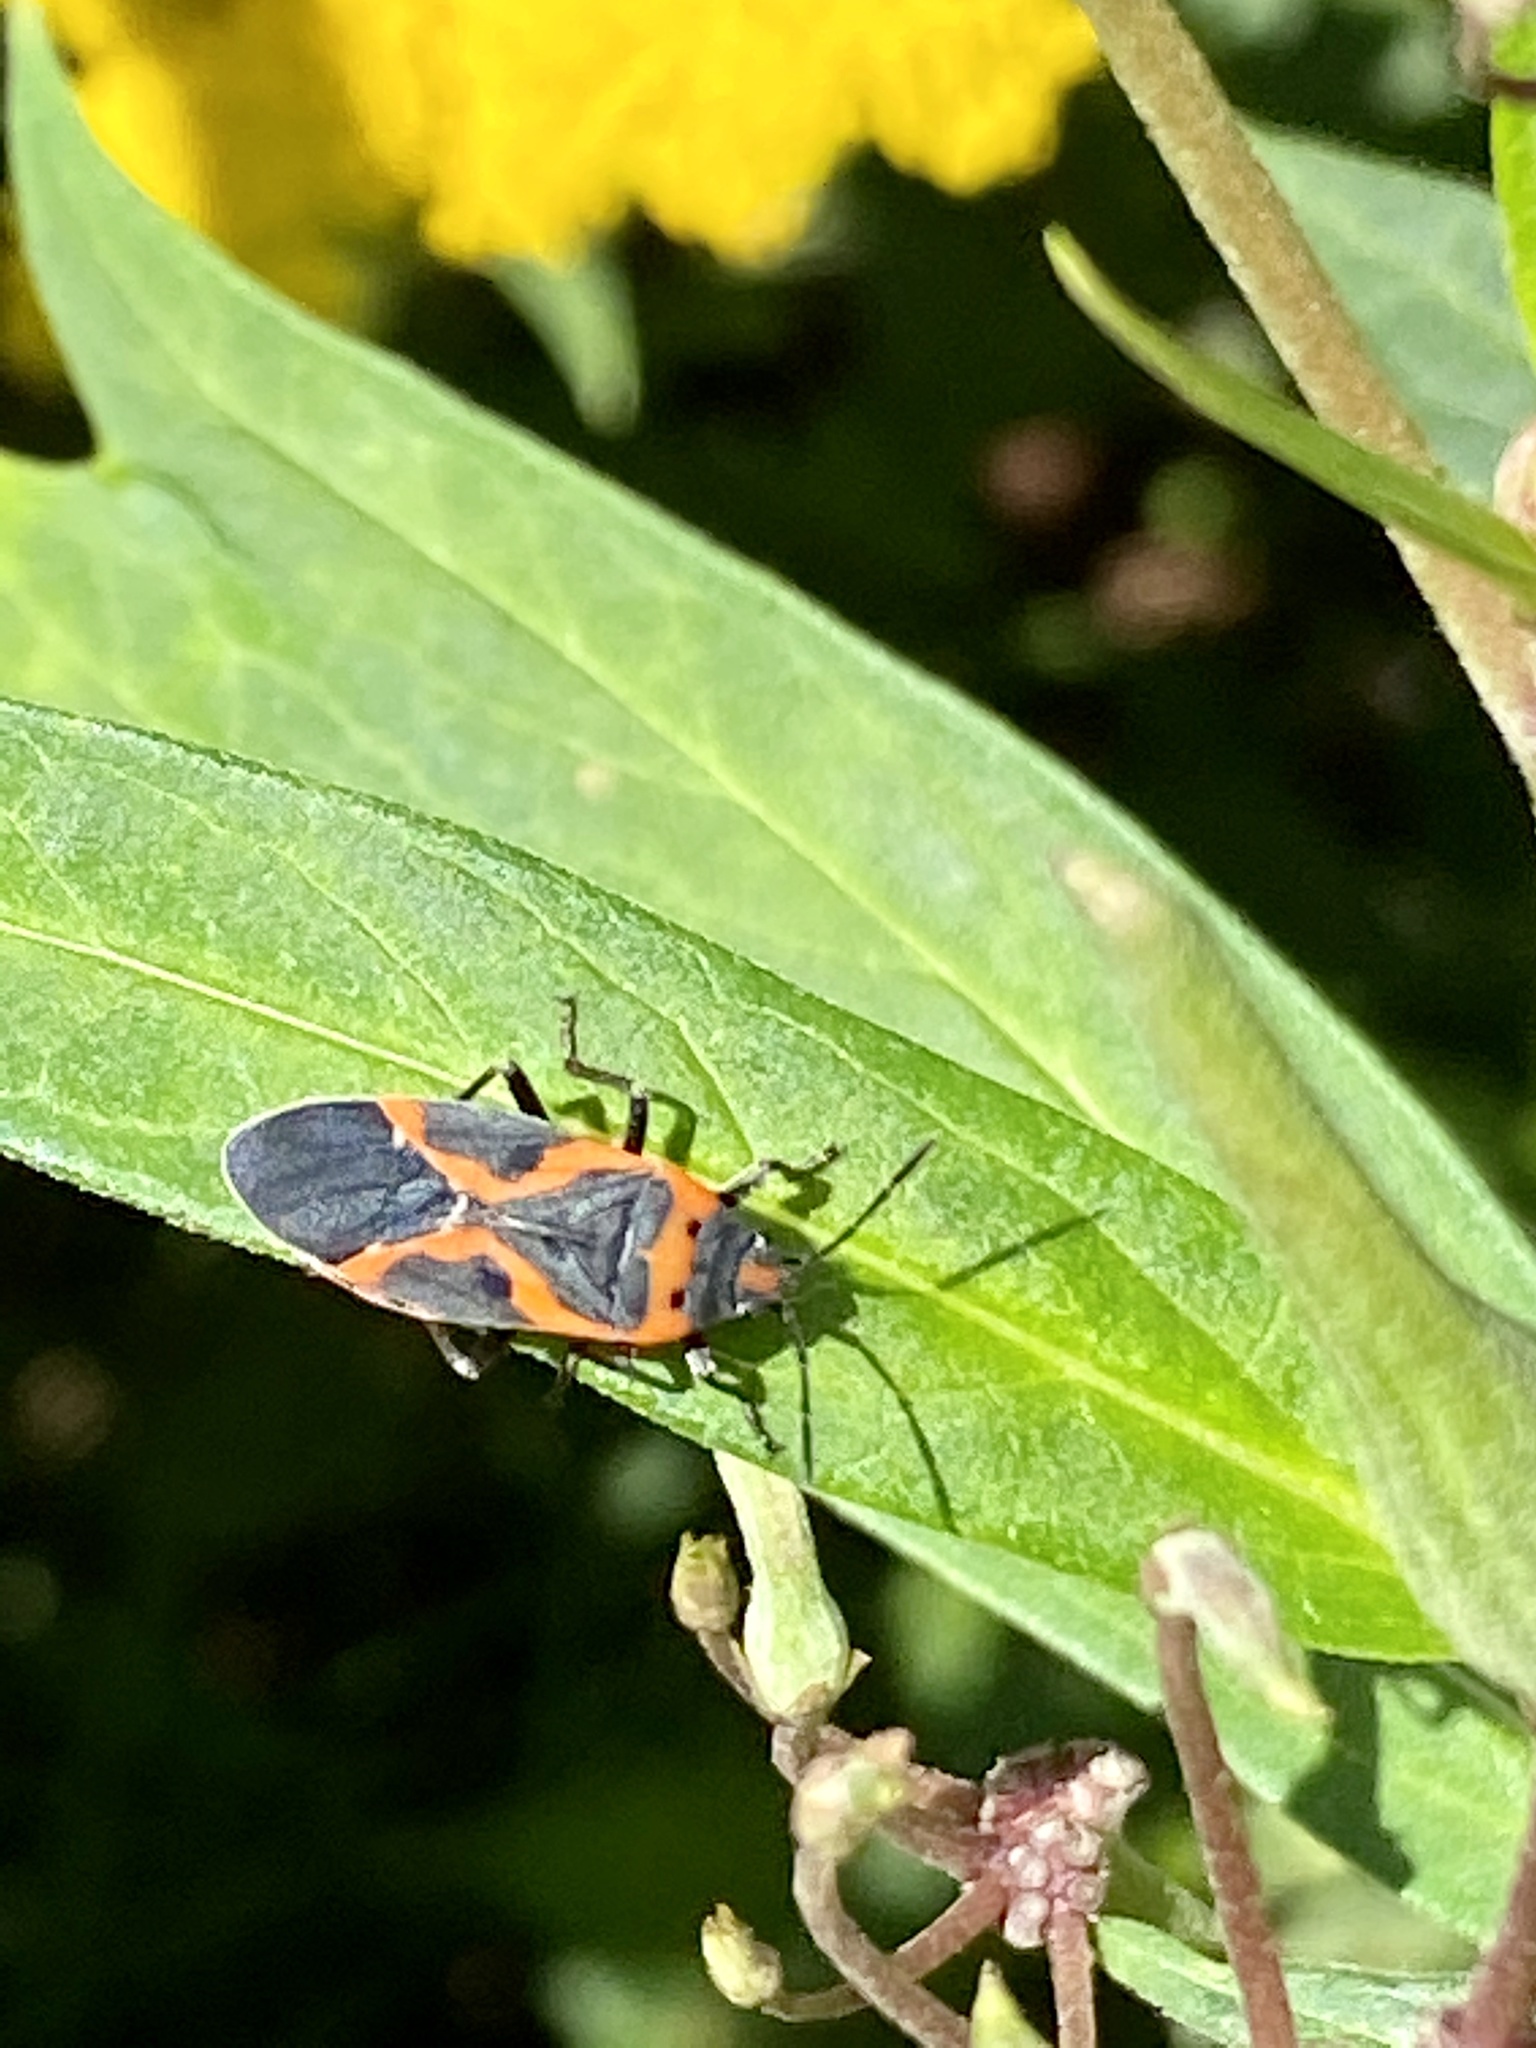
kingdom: Animalia
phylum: Arthropoda
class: Insecta
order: Hemiptera
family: Lygaeidae
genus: Lygaeus
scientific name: Lygaeus kalmii
